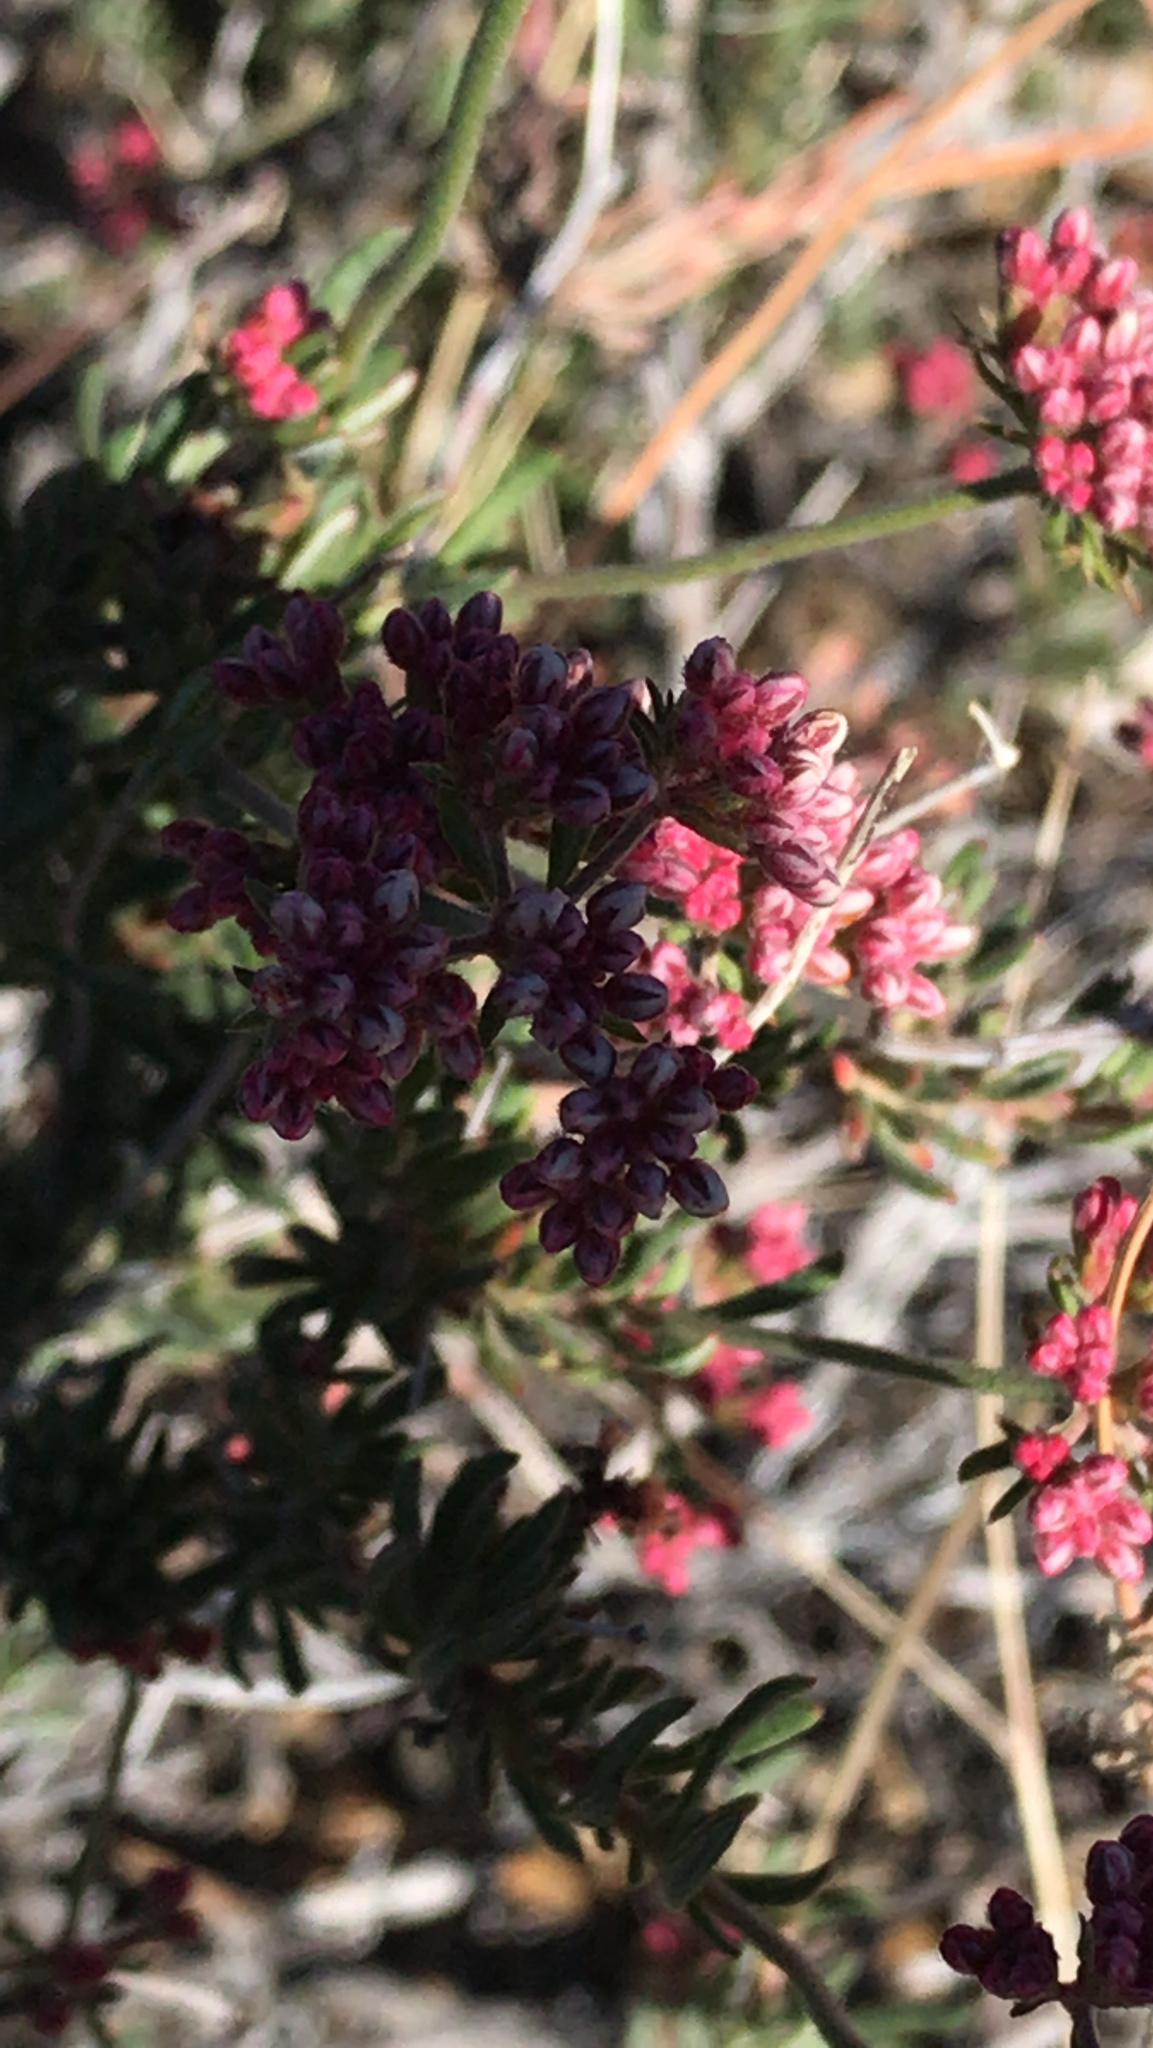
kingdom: Plantae
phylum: Tracheophyta
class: Magnoliopsida
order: Caryophyllales
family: Polygonaceae
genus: Eriogonum
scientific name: Eriogonum fasciculatum
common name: California wild buckwheat
